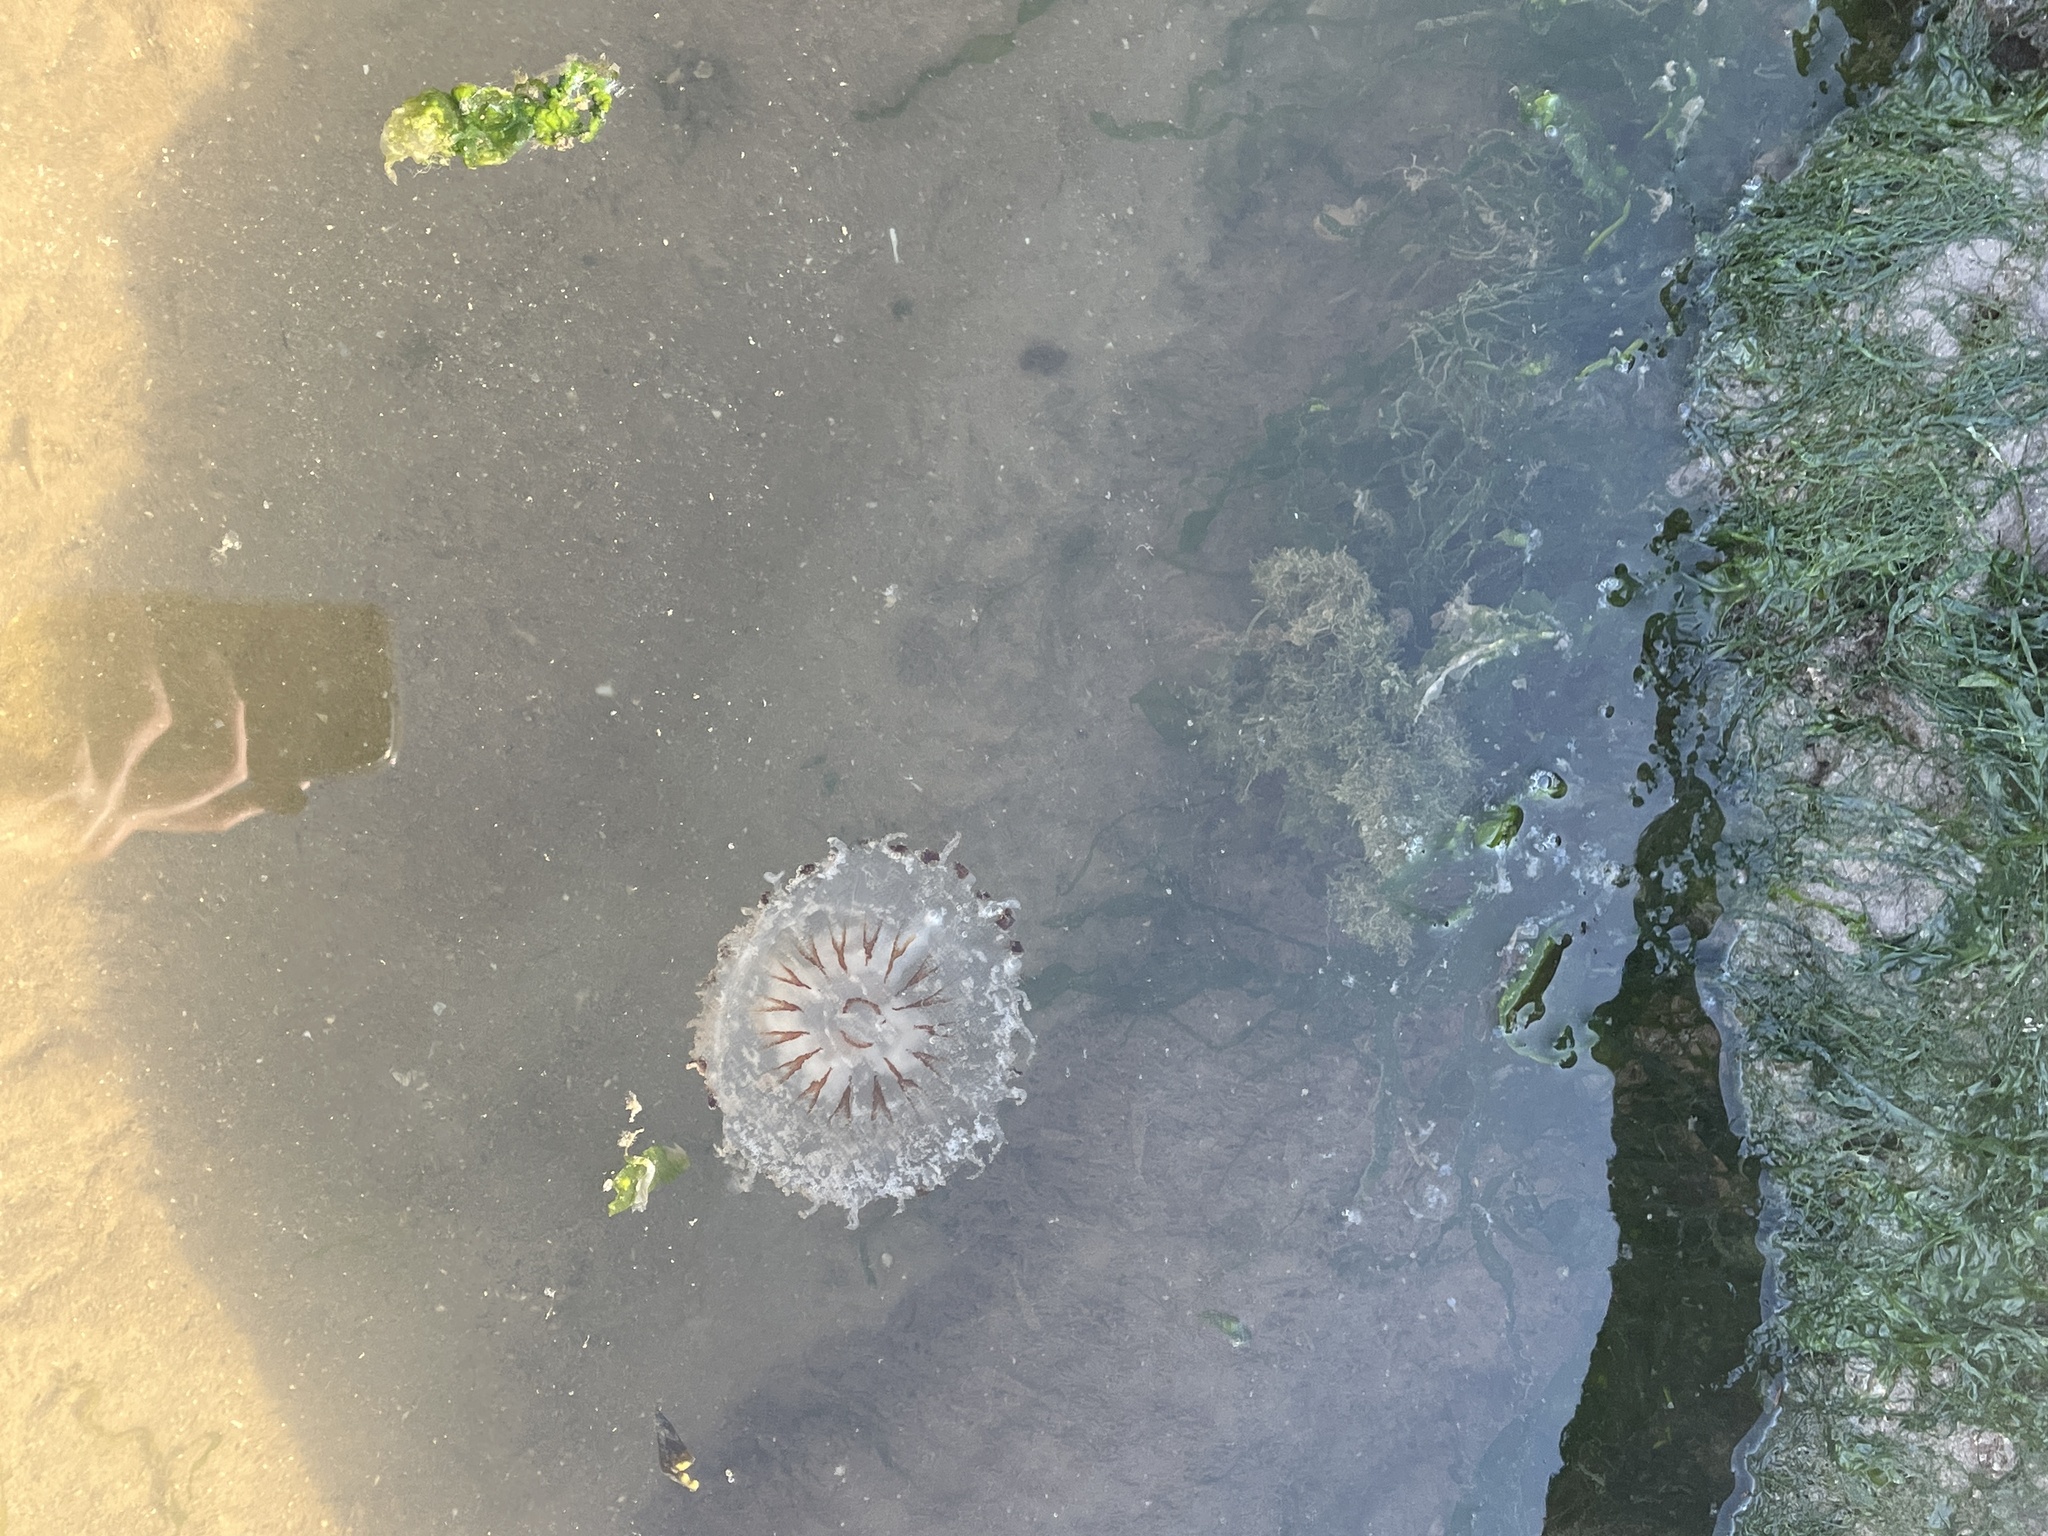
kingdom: Animalia
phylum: Cnidaria
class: Scyphozoa
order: Semaeostomeae
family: Pelagiidae
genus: Chrysaora
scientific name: Chrysaora hysoscella
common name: Compass jellyfish
